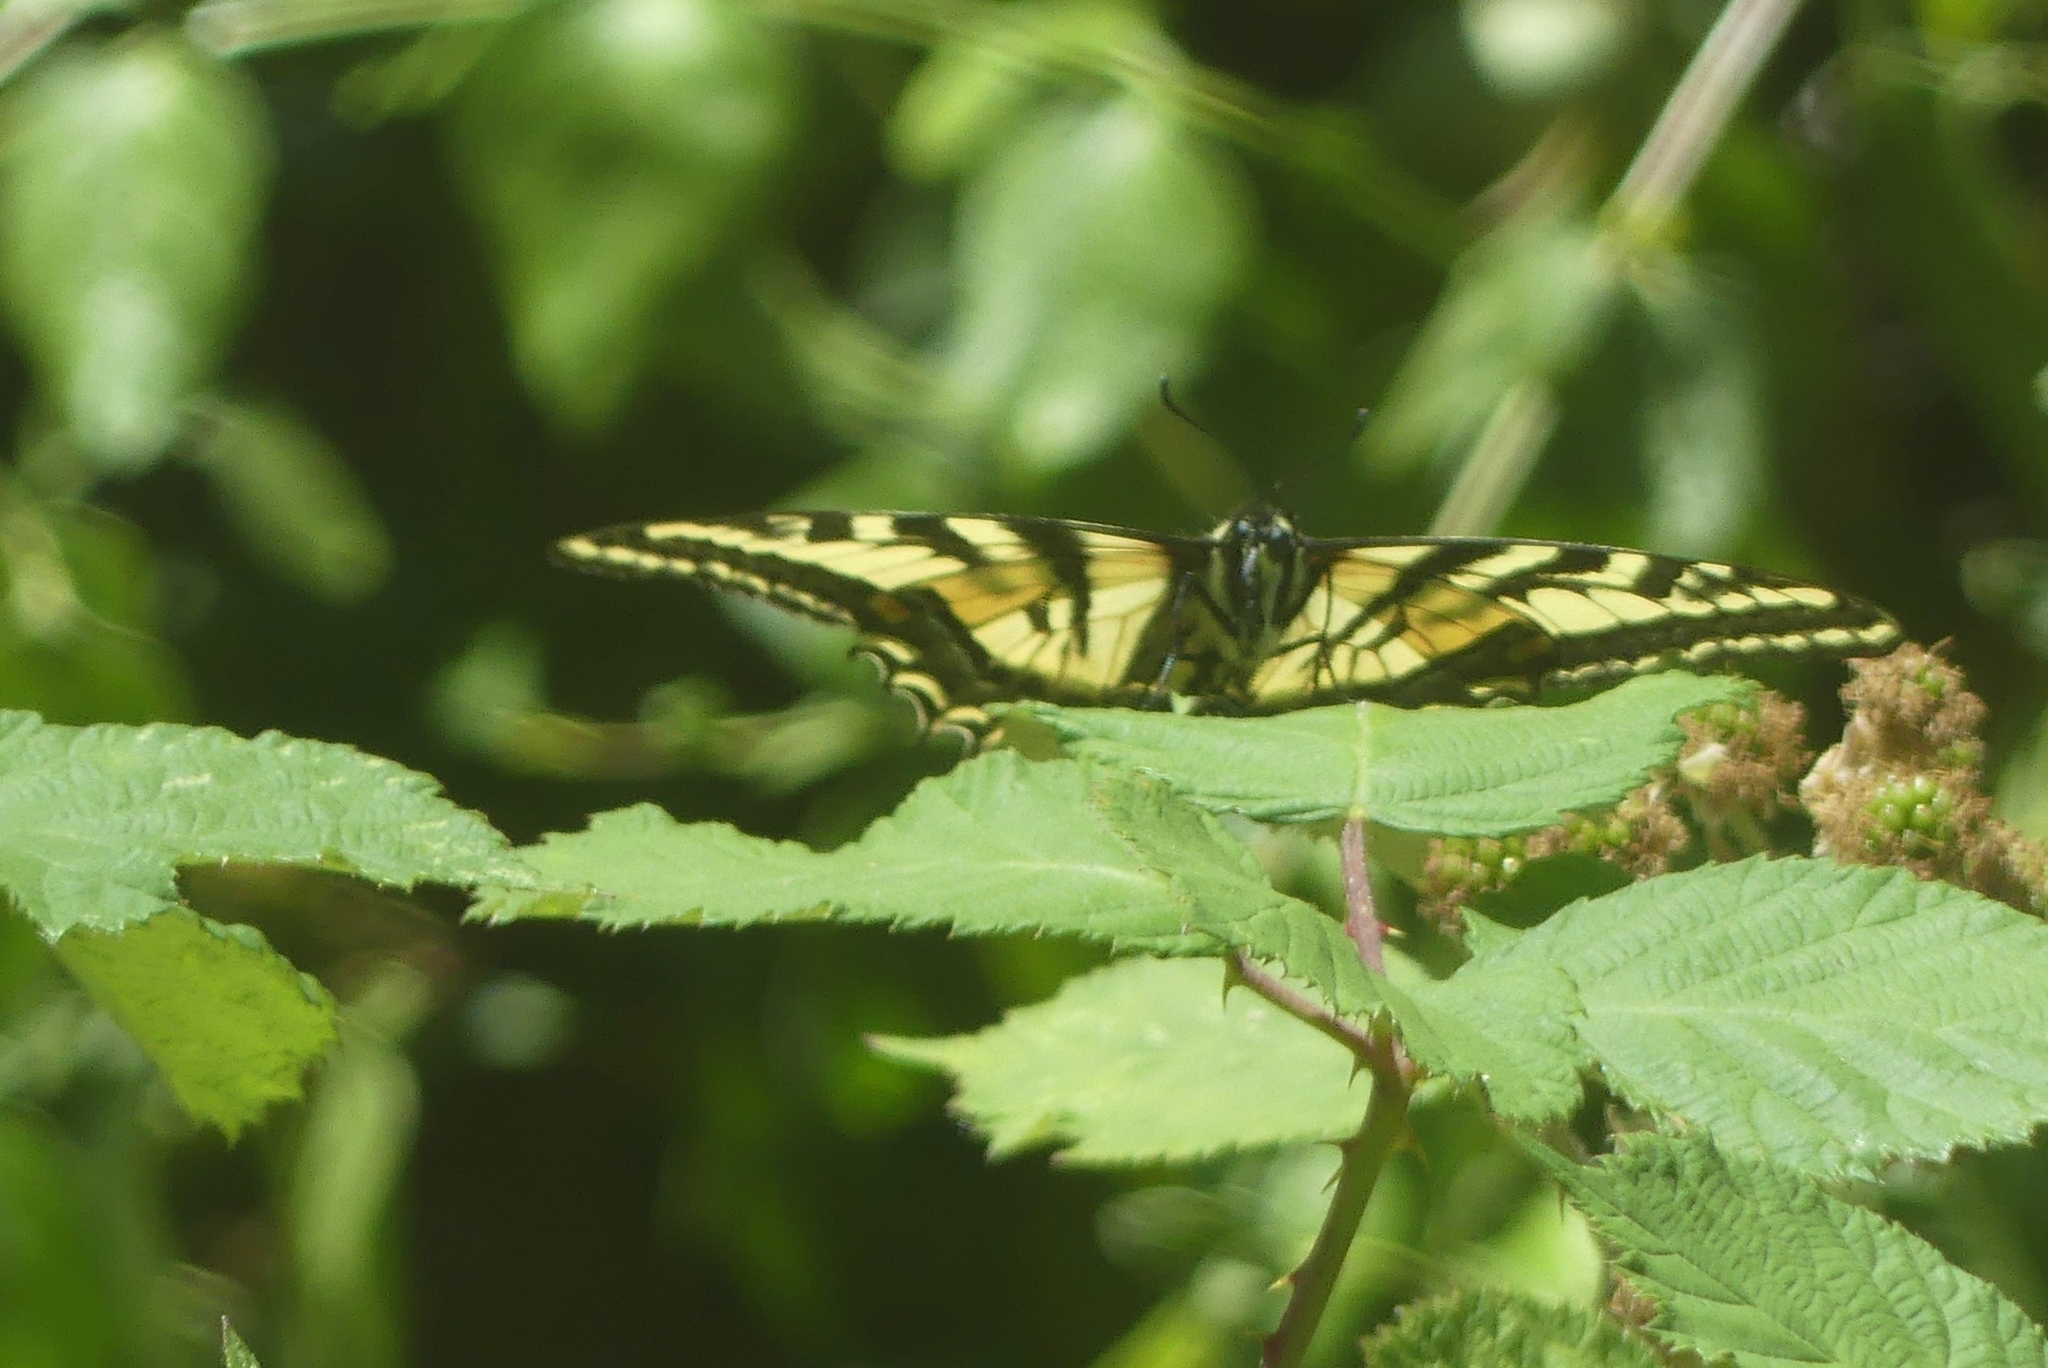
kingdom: Animalia
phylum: Arthropoda
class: Insecta
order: Lepidoptera
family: Papilionidae
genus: Papilio
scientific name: Papilio rutulus
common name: Western tiger swallowtail
